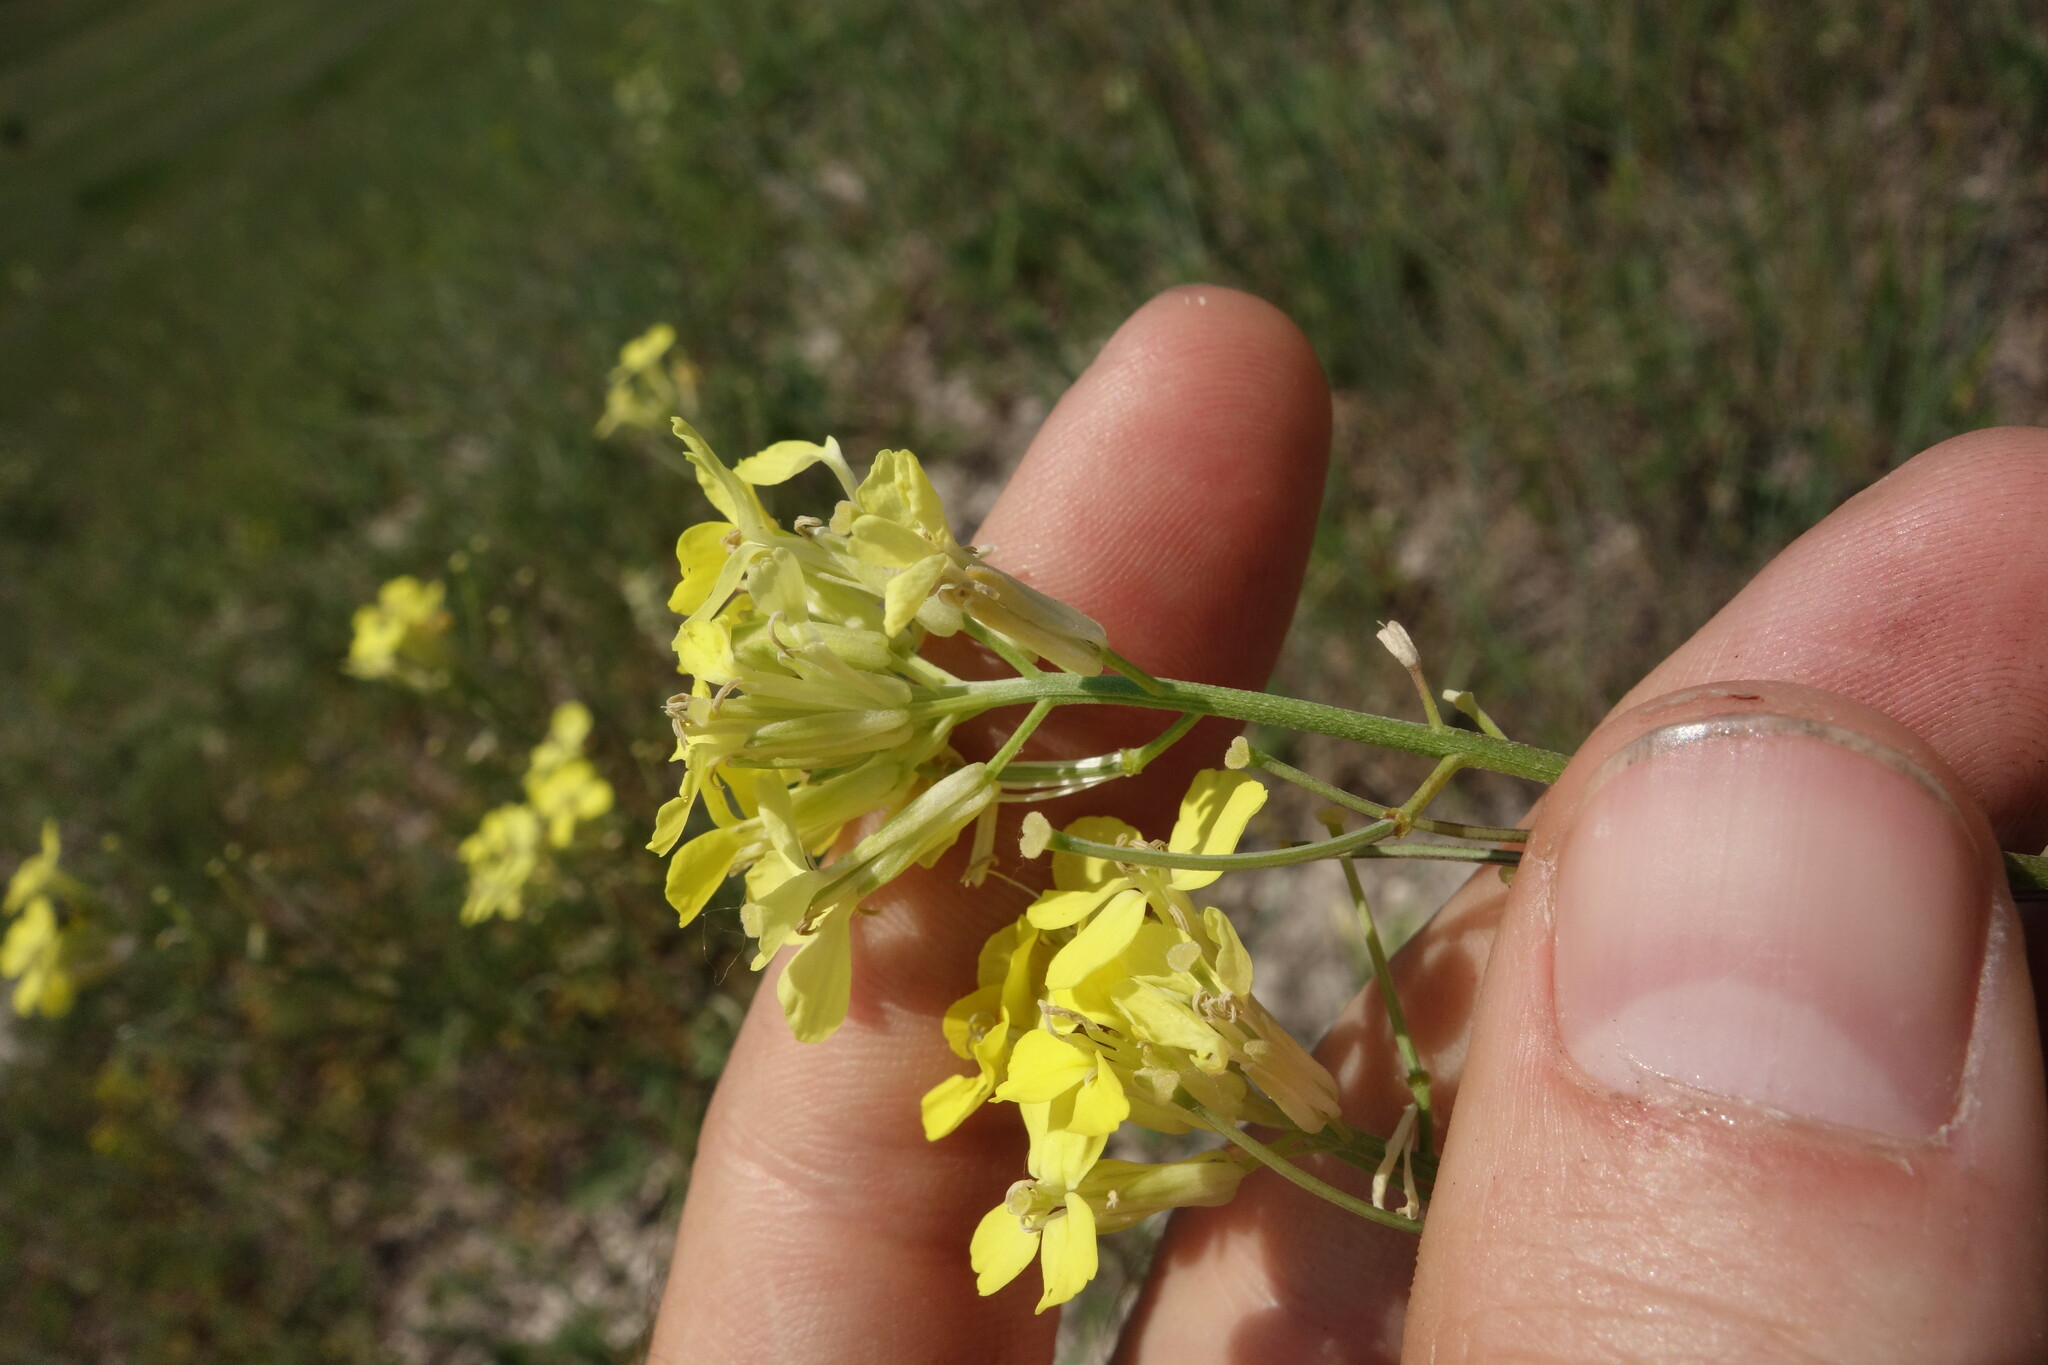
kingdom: Plantae
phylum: Tracheophyta
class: Magnoliopsida
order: Brassicales
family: Brassicaceae
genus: Erysimum
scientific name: Erysimum diffusum
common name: Diffuse wallflower
